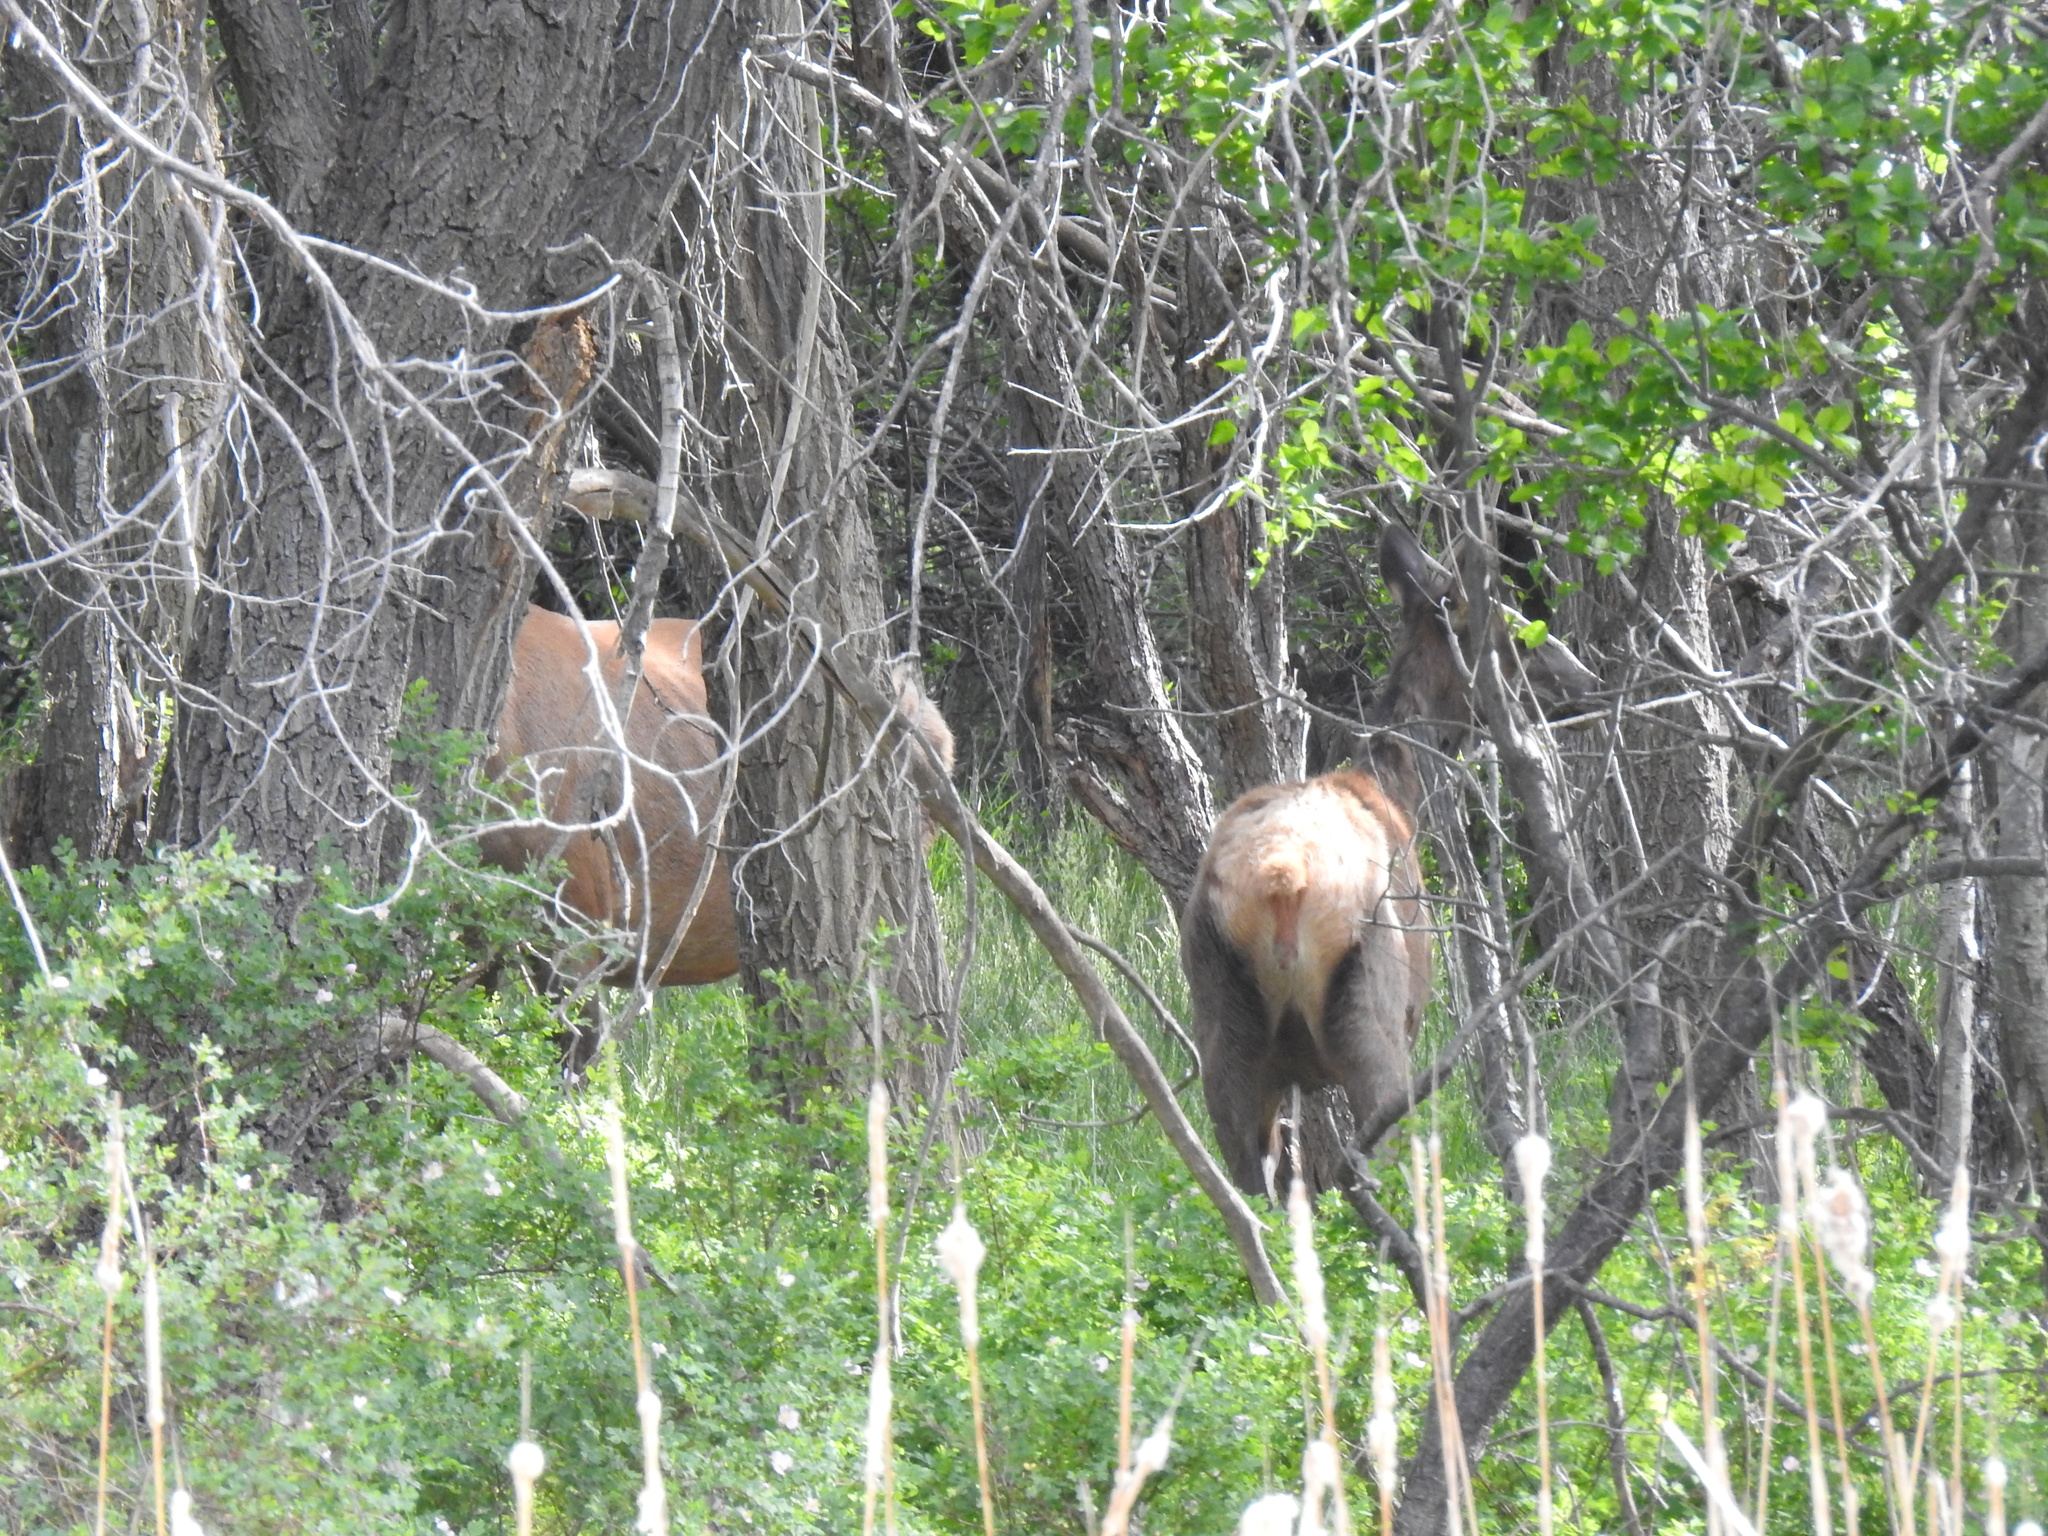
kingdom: Animalia
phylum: Chordata
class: Mammalia
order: Artiodactyla
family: Cervidae
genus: Cervus
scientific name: Cervus elaphus
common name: Red deer
